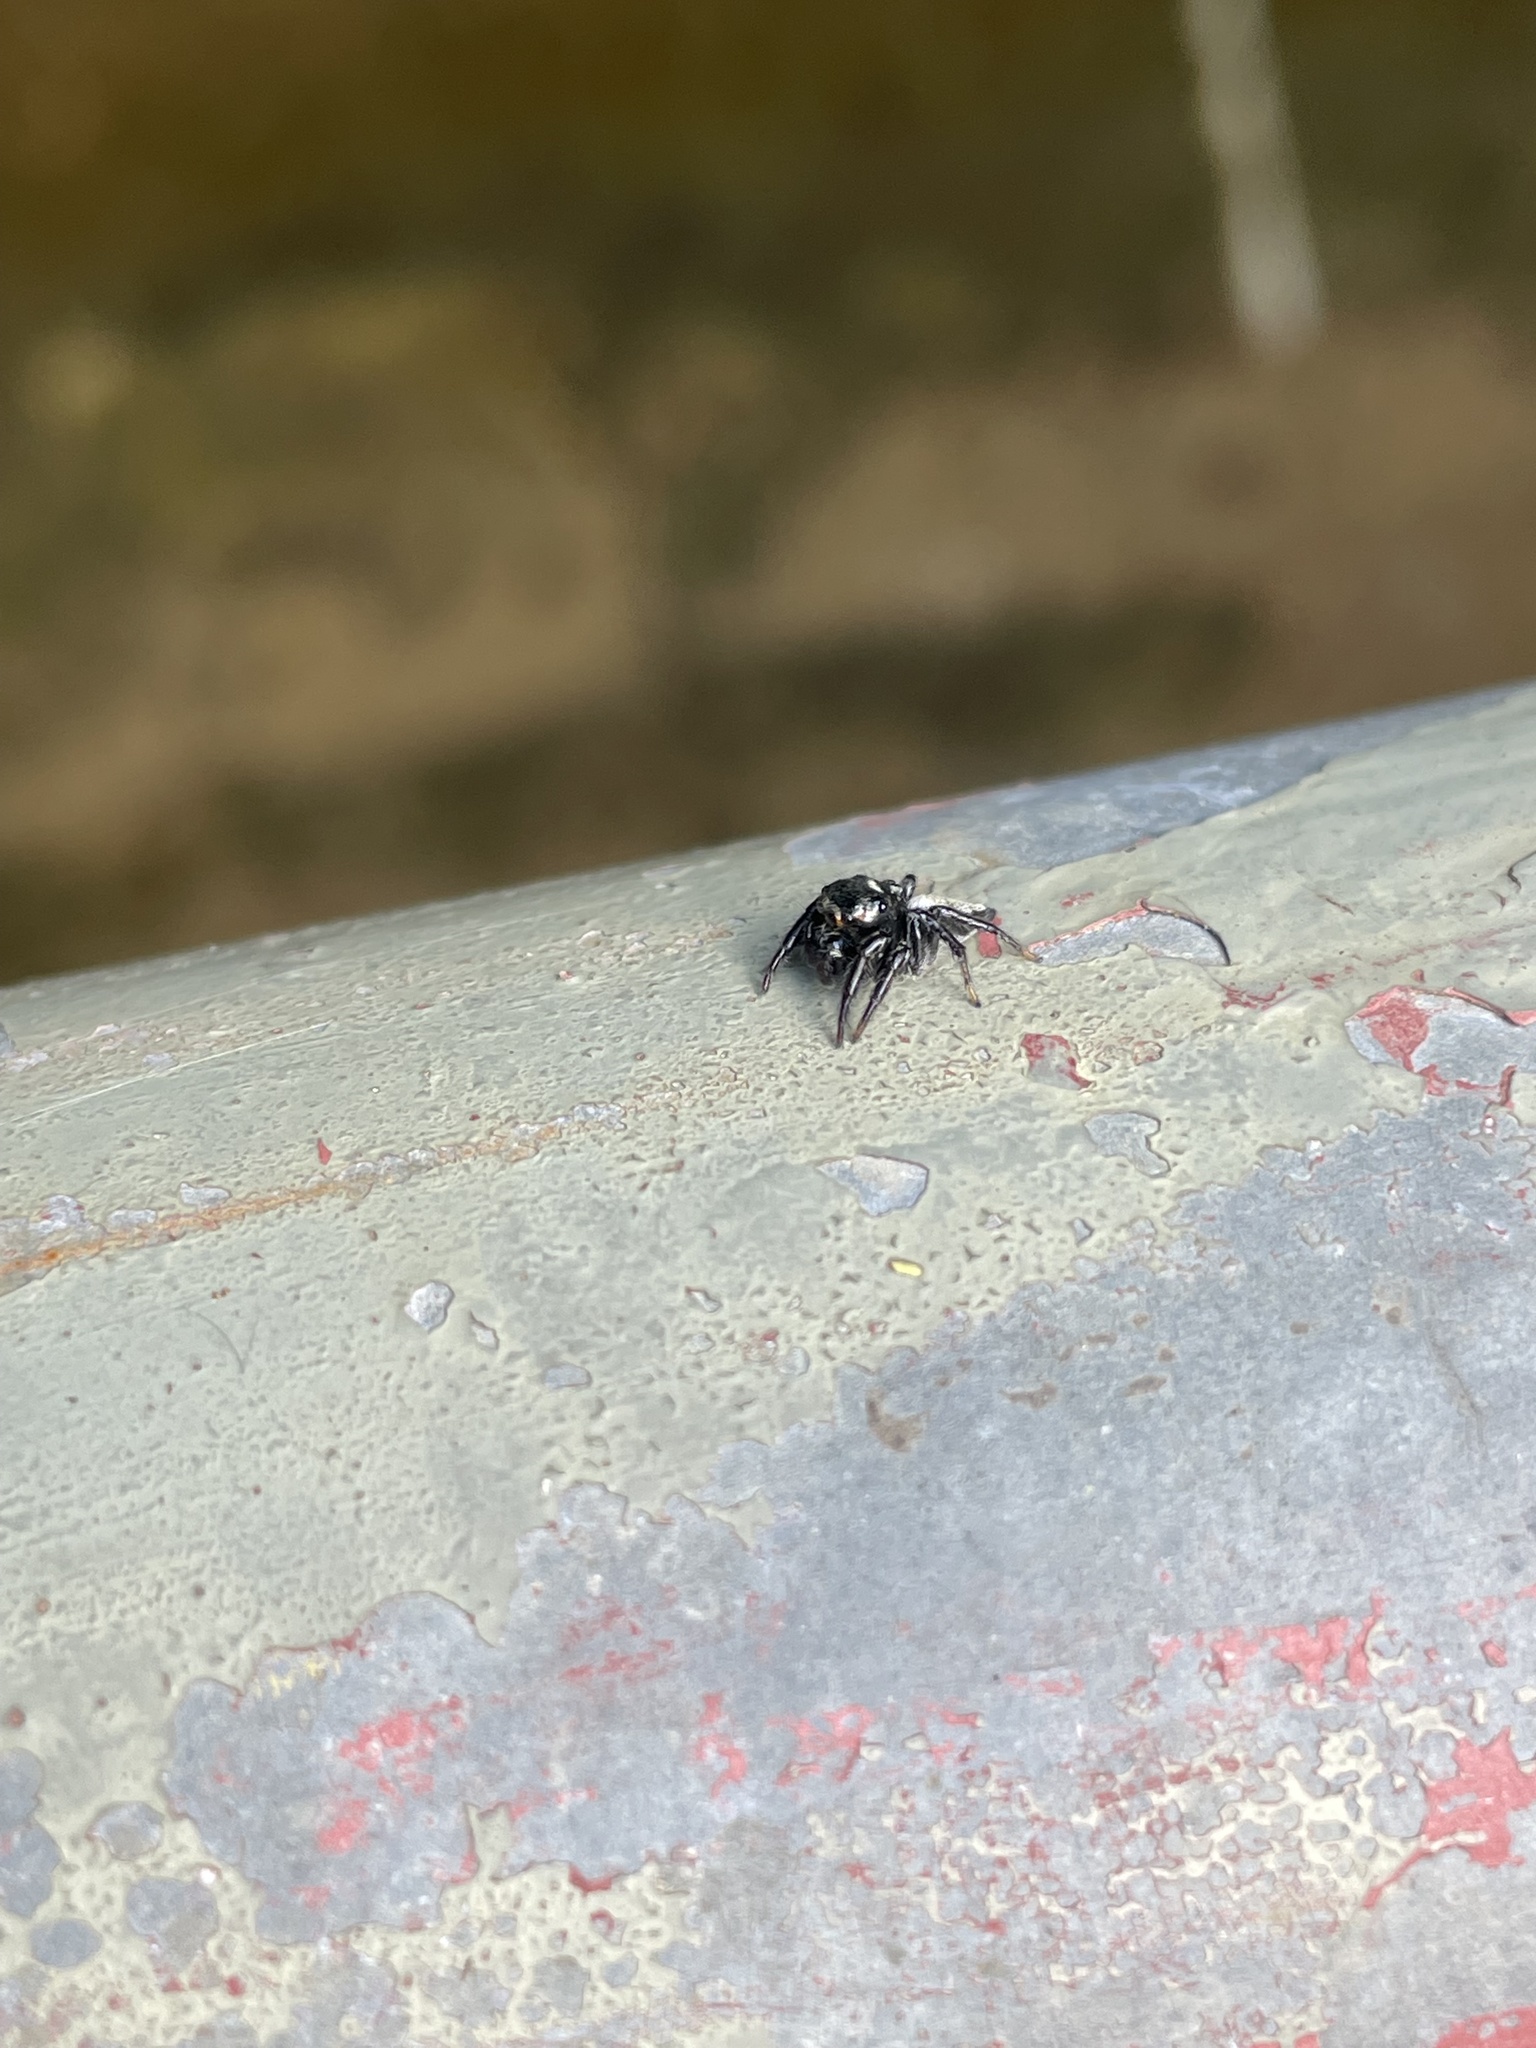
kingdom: Animalia
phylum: Arthropoda
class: Arachnida
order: Araneae
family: Salticidae
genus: Ptocasius
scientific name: Ptocasius strupifer
